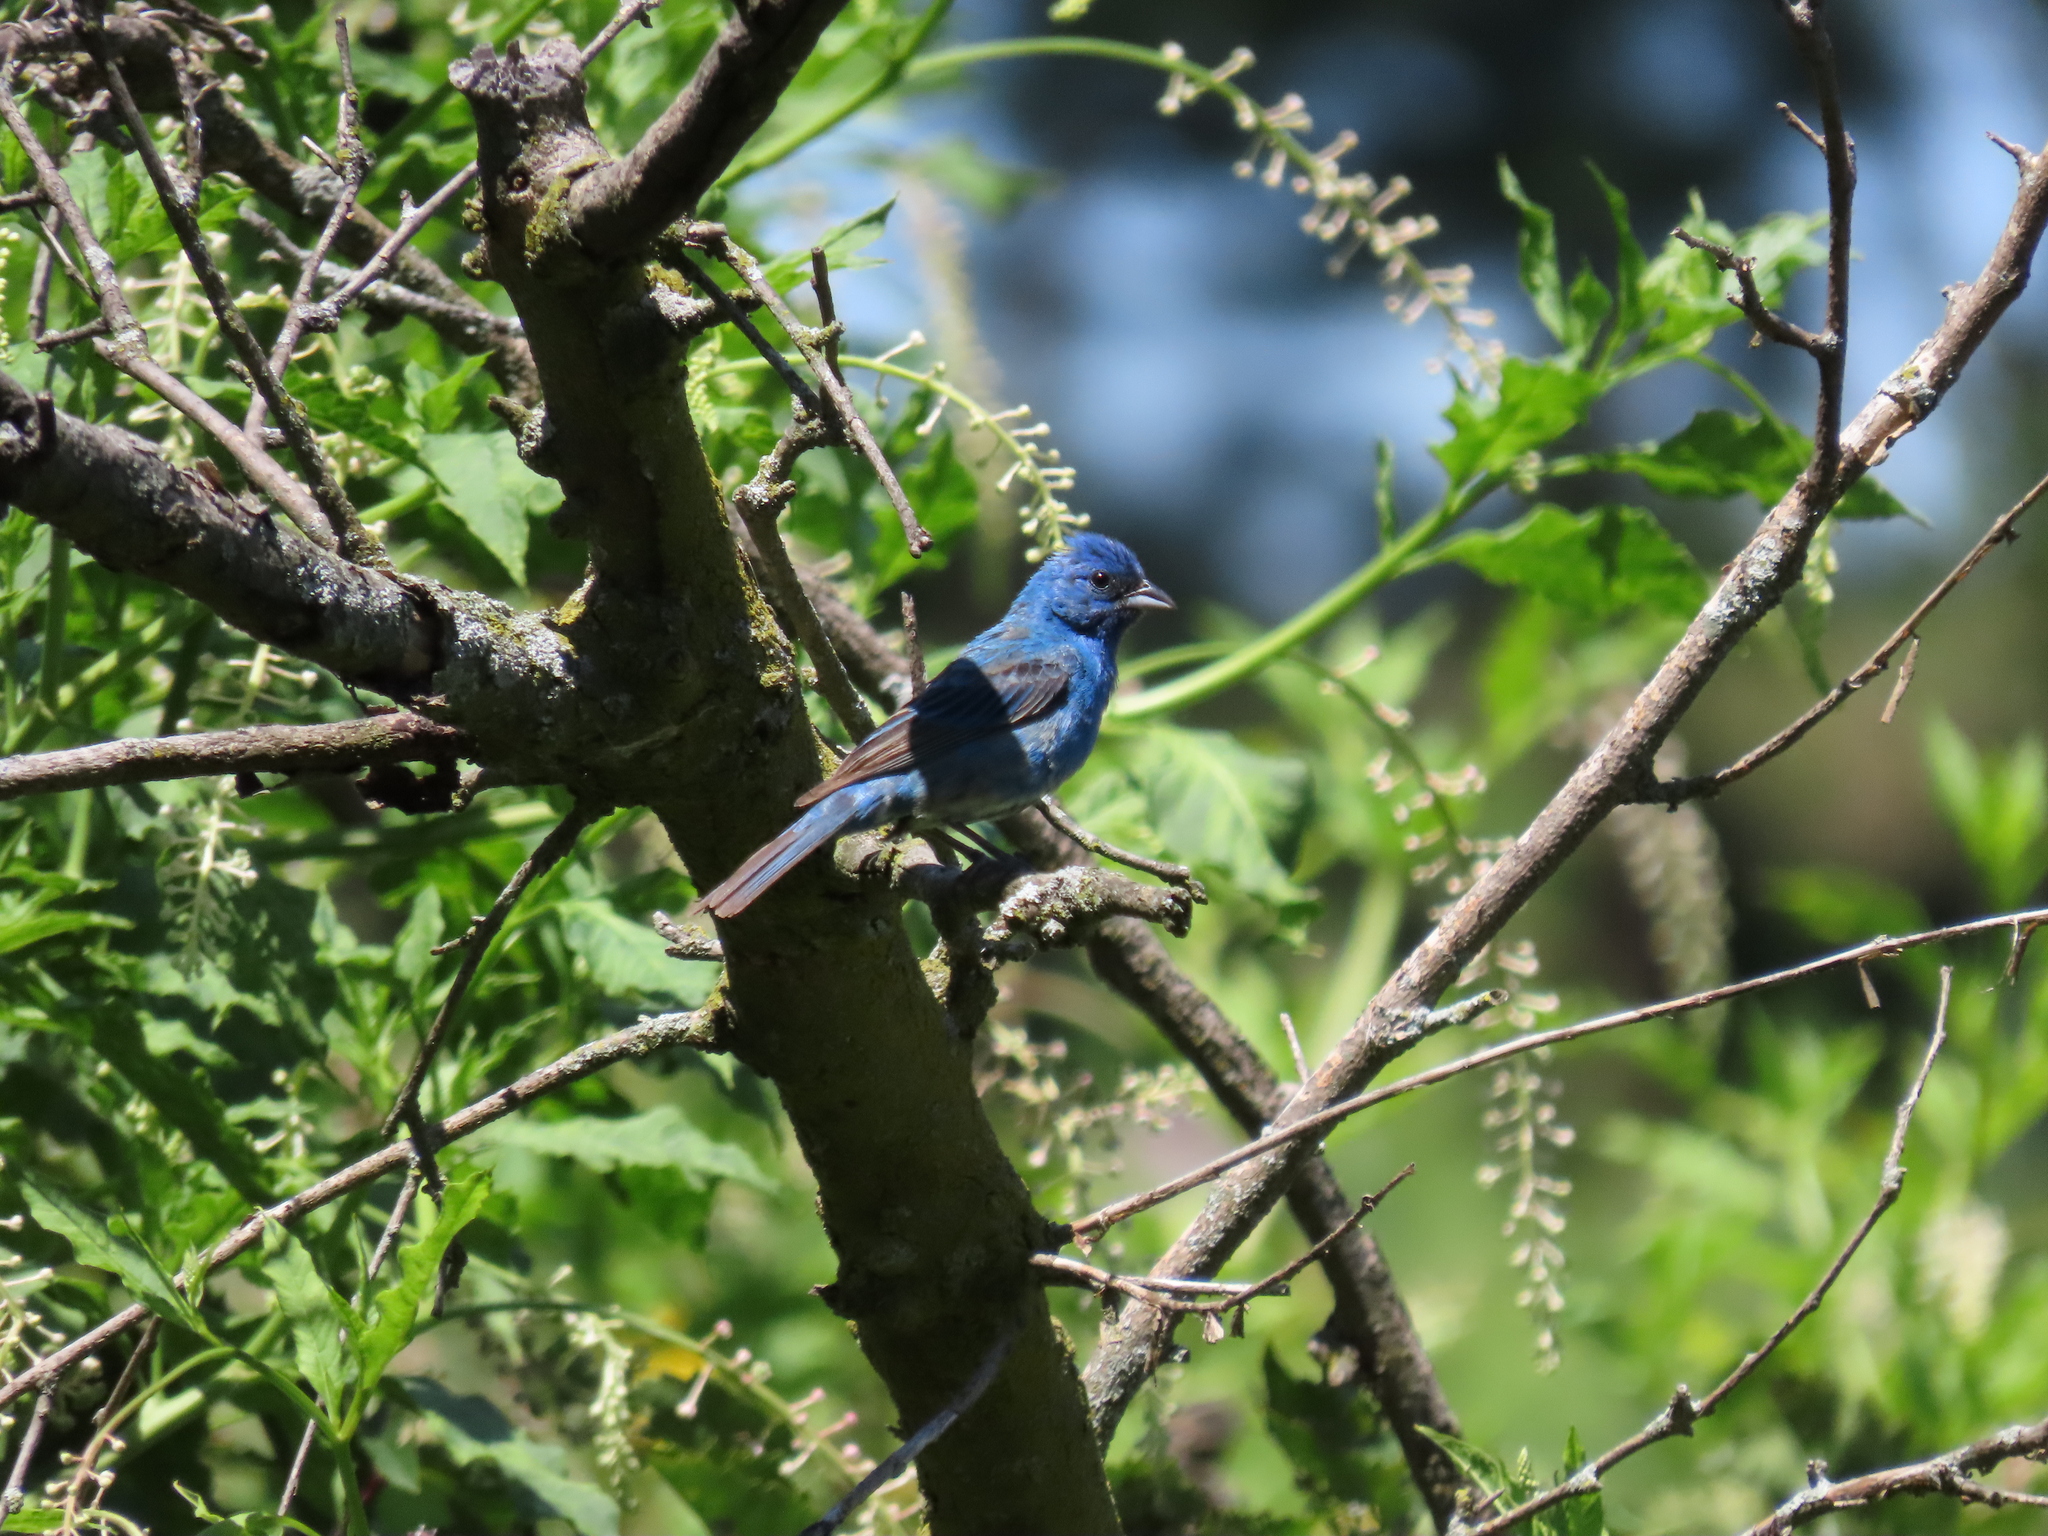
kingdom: Animalia
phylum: Chordata
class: Aves
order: Passeriformes
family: Cardinalidae
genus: Passerina
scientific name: Passerina cyanea
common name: Indigo bunting
